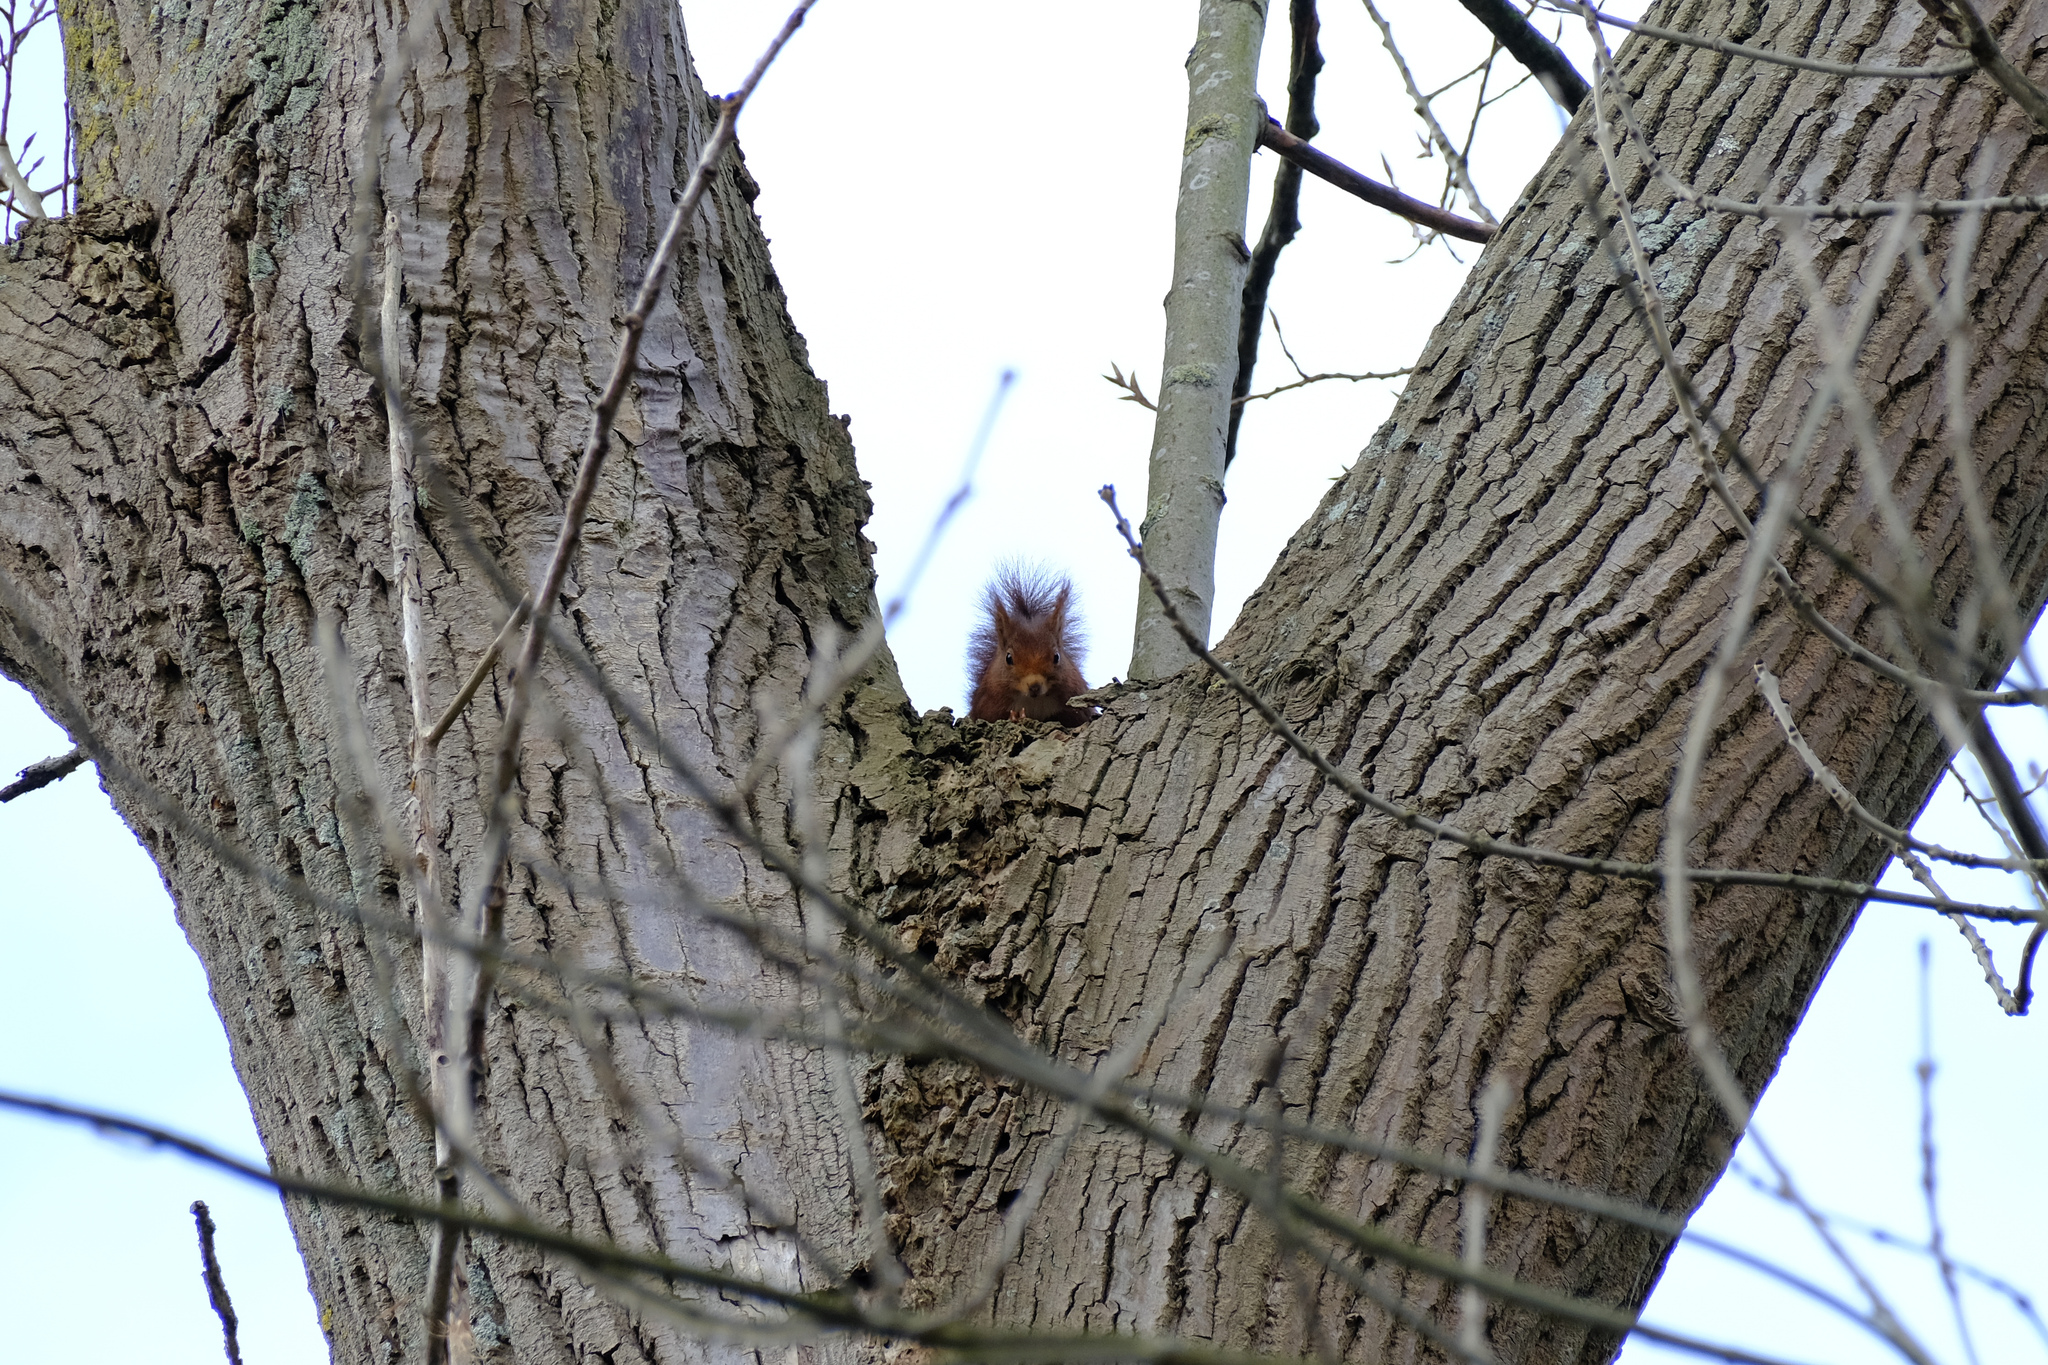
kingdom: Animalia
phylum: Chordata
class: Mammalia
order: Rodentia
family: Sciuridae
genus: Sciurus
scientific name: Sciurus vulgaris
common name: Eurasian red squirrel
